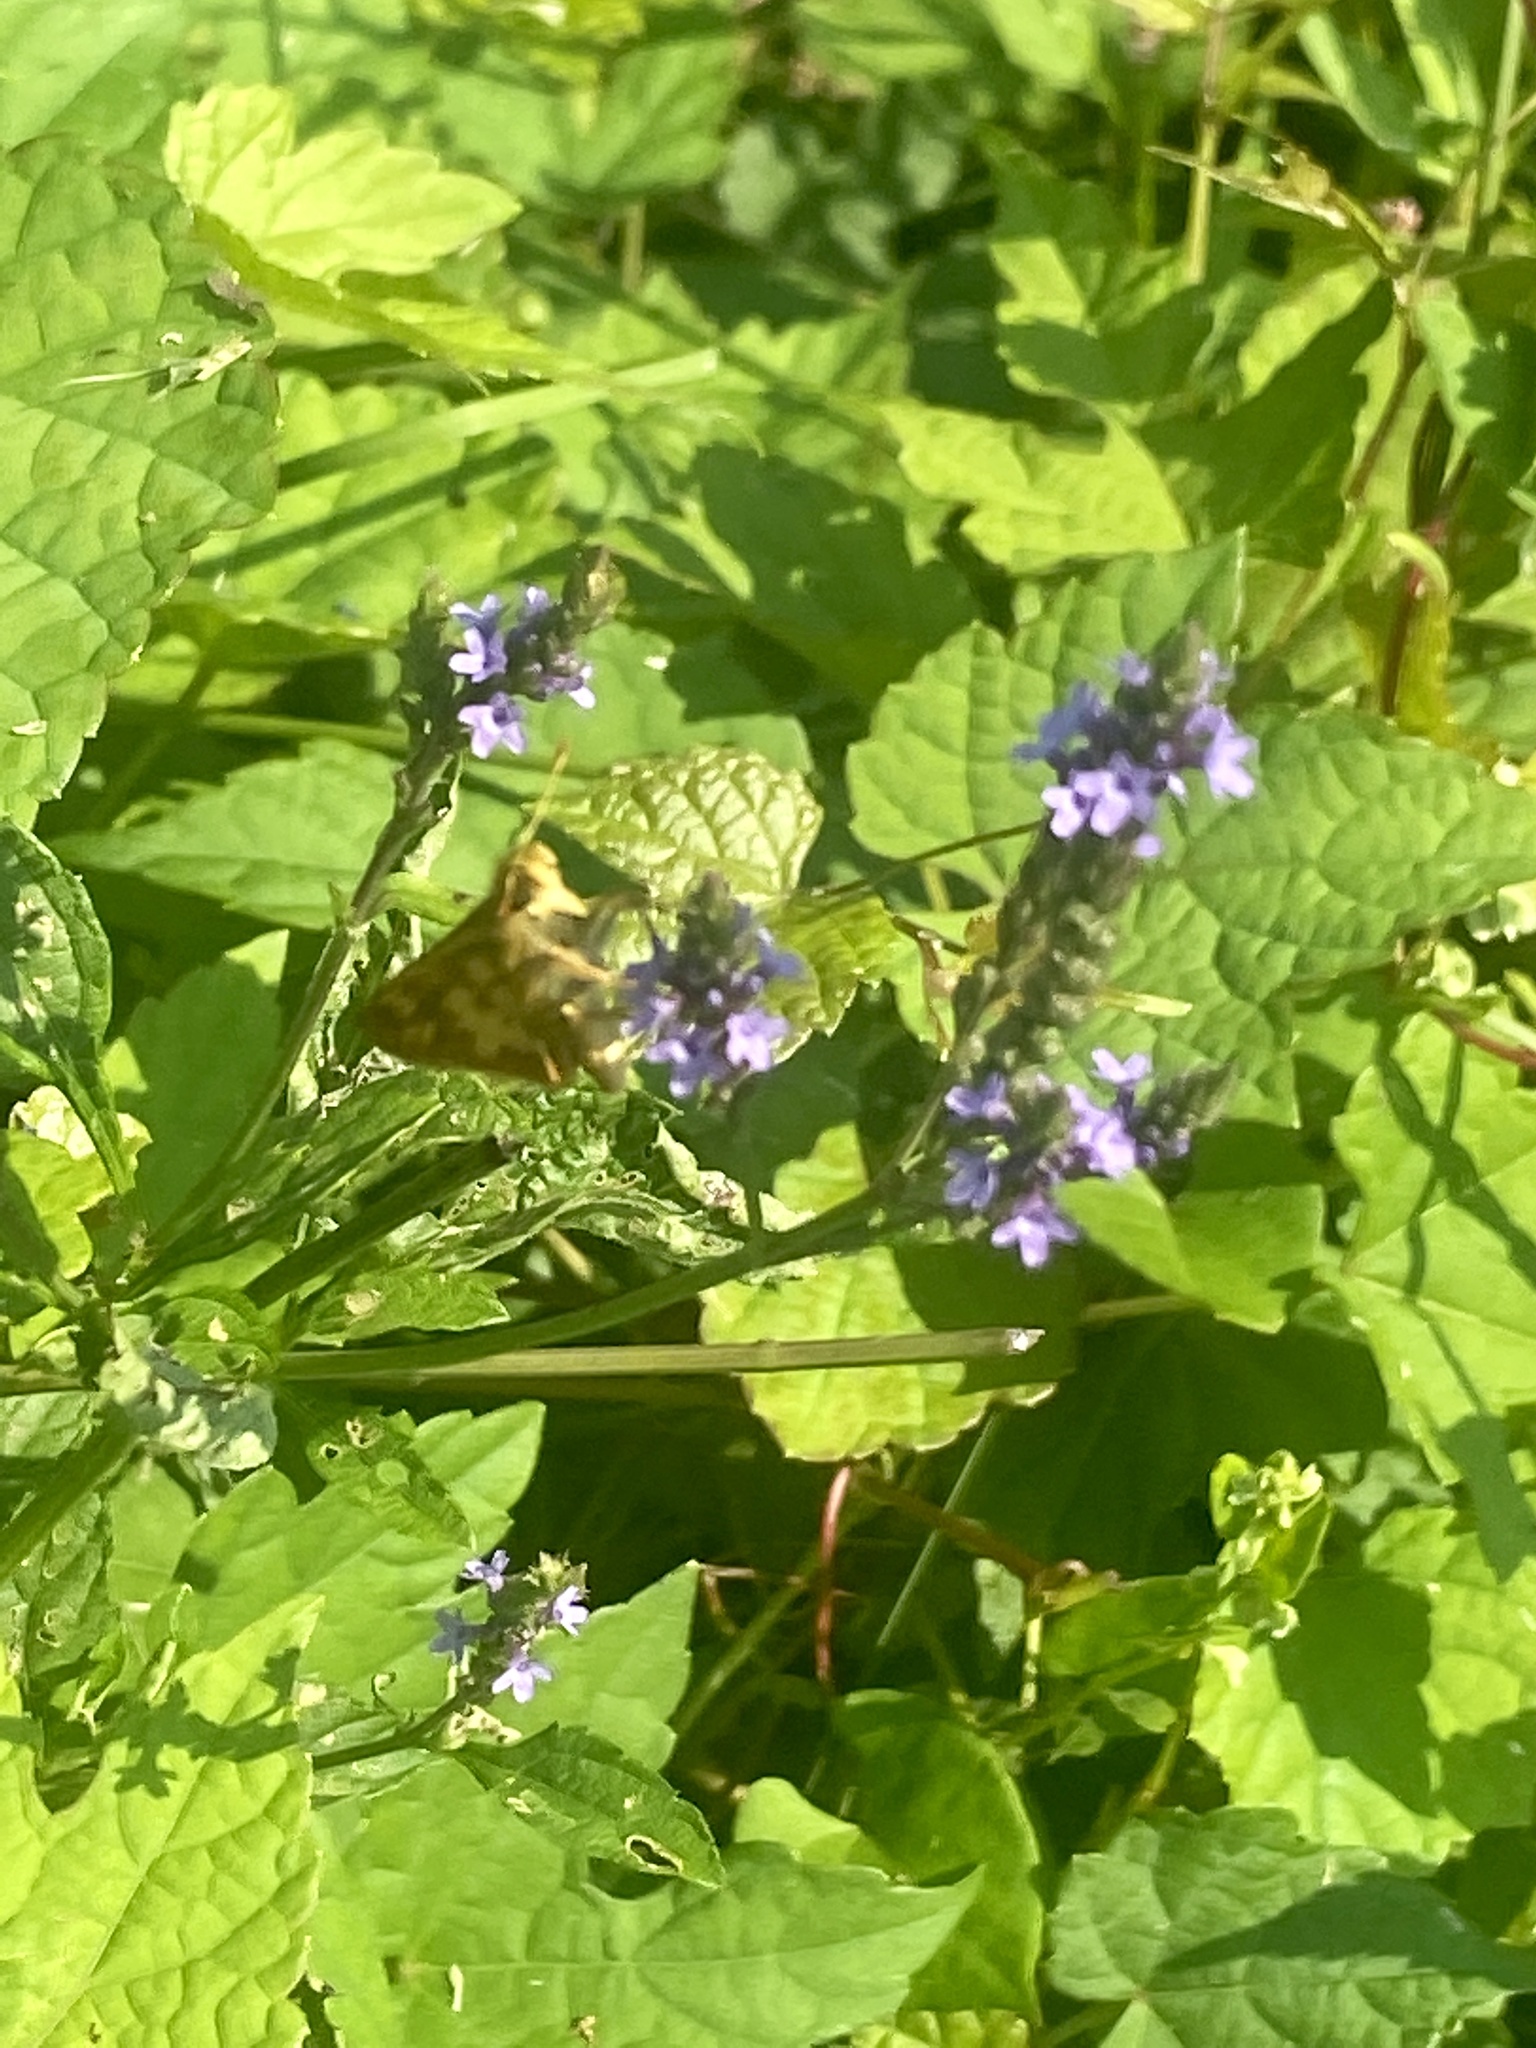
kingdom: Plantae
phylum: Tracheophyta
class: Magnoliopsida
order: Lamiales
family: Verbenaceae
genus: Verbena
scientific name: Verbena hastata
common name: American blue vervain
